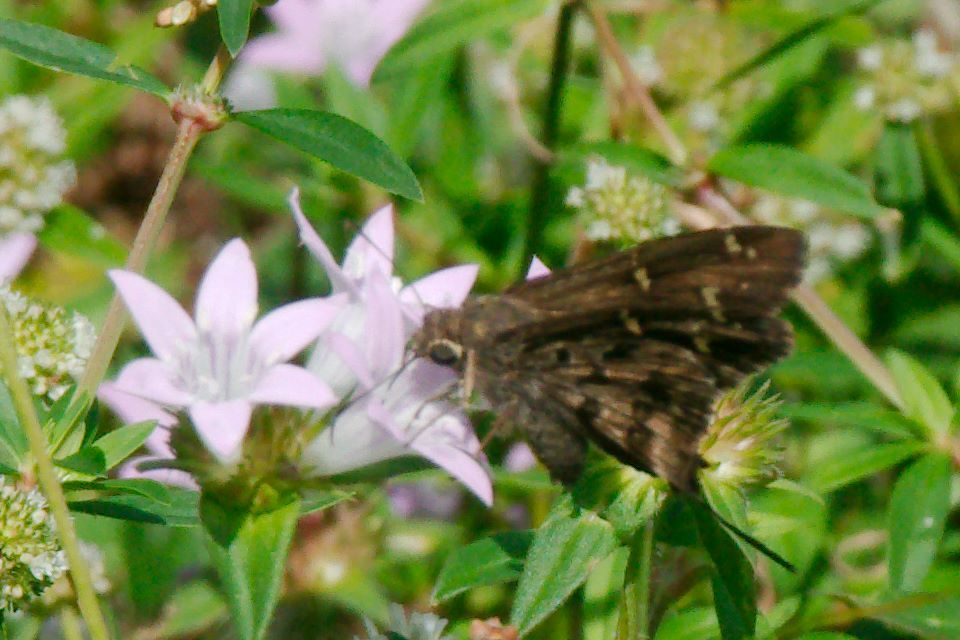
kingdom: Animalia
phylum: Arthropoda
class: Insecta
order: Lepidoptera
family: Hesperiidae
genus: Thorybes
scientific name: Thorybes
